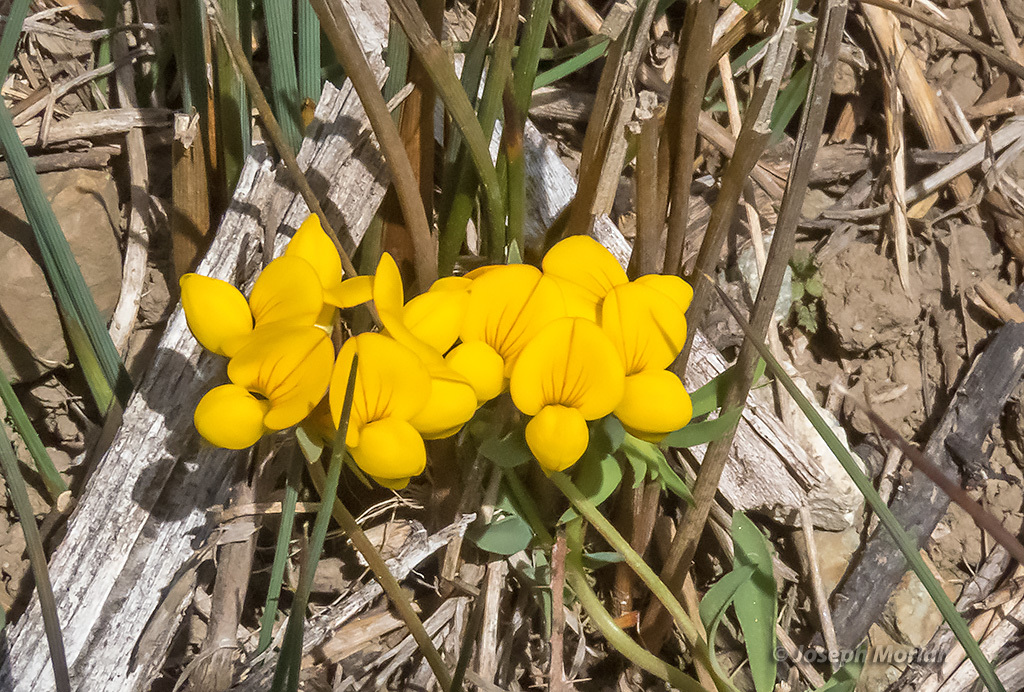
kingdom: Plantae
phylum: Tracheophyta
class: Magnoliopsida
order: Fabales
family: Fabaceae
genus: Lotus
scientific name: Lotus corniculatus
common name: Common bird's-foot-trefoil
